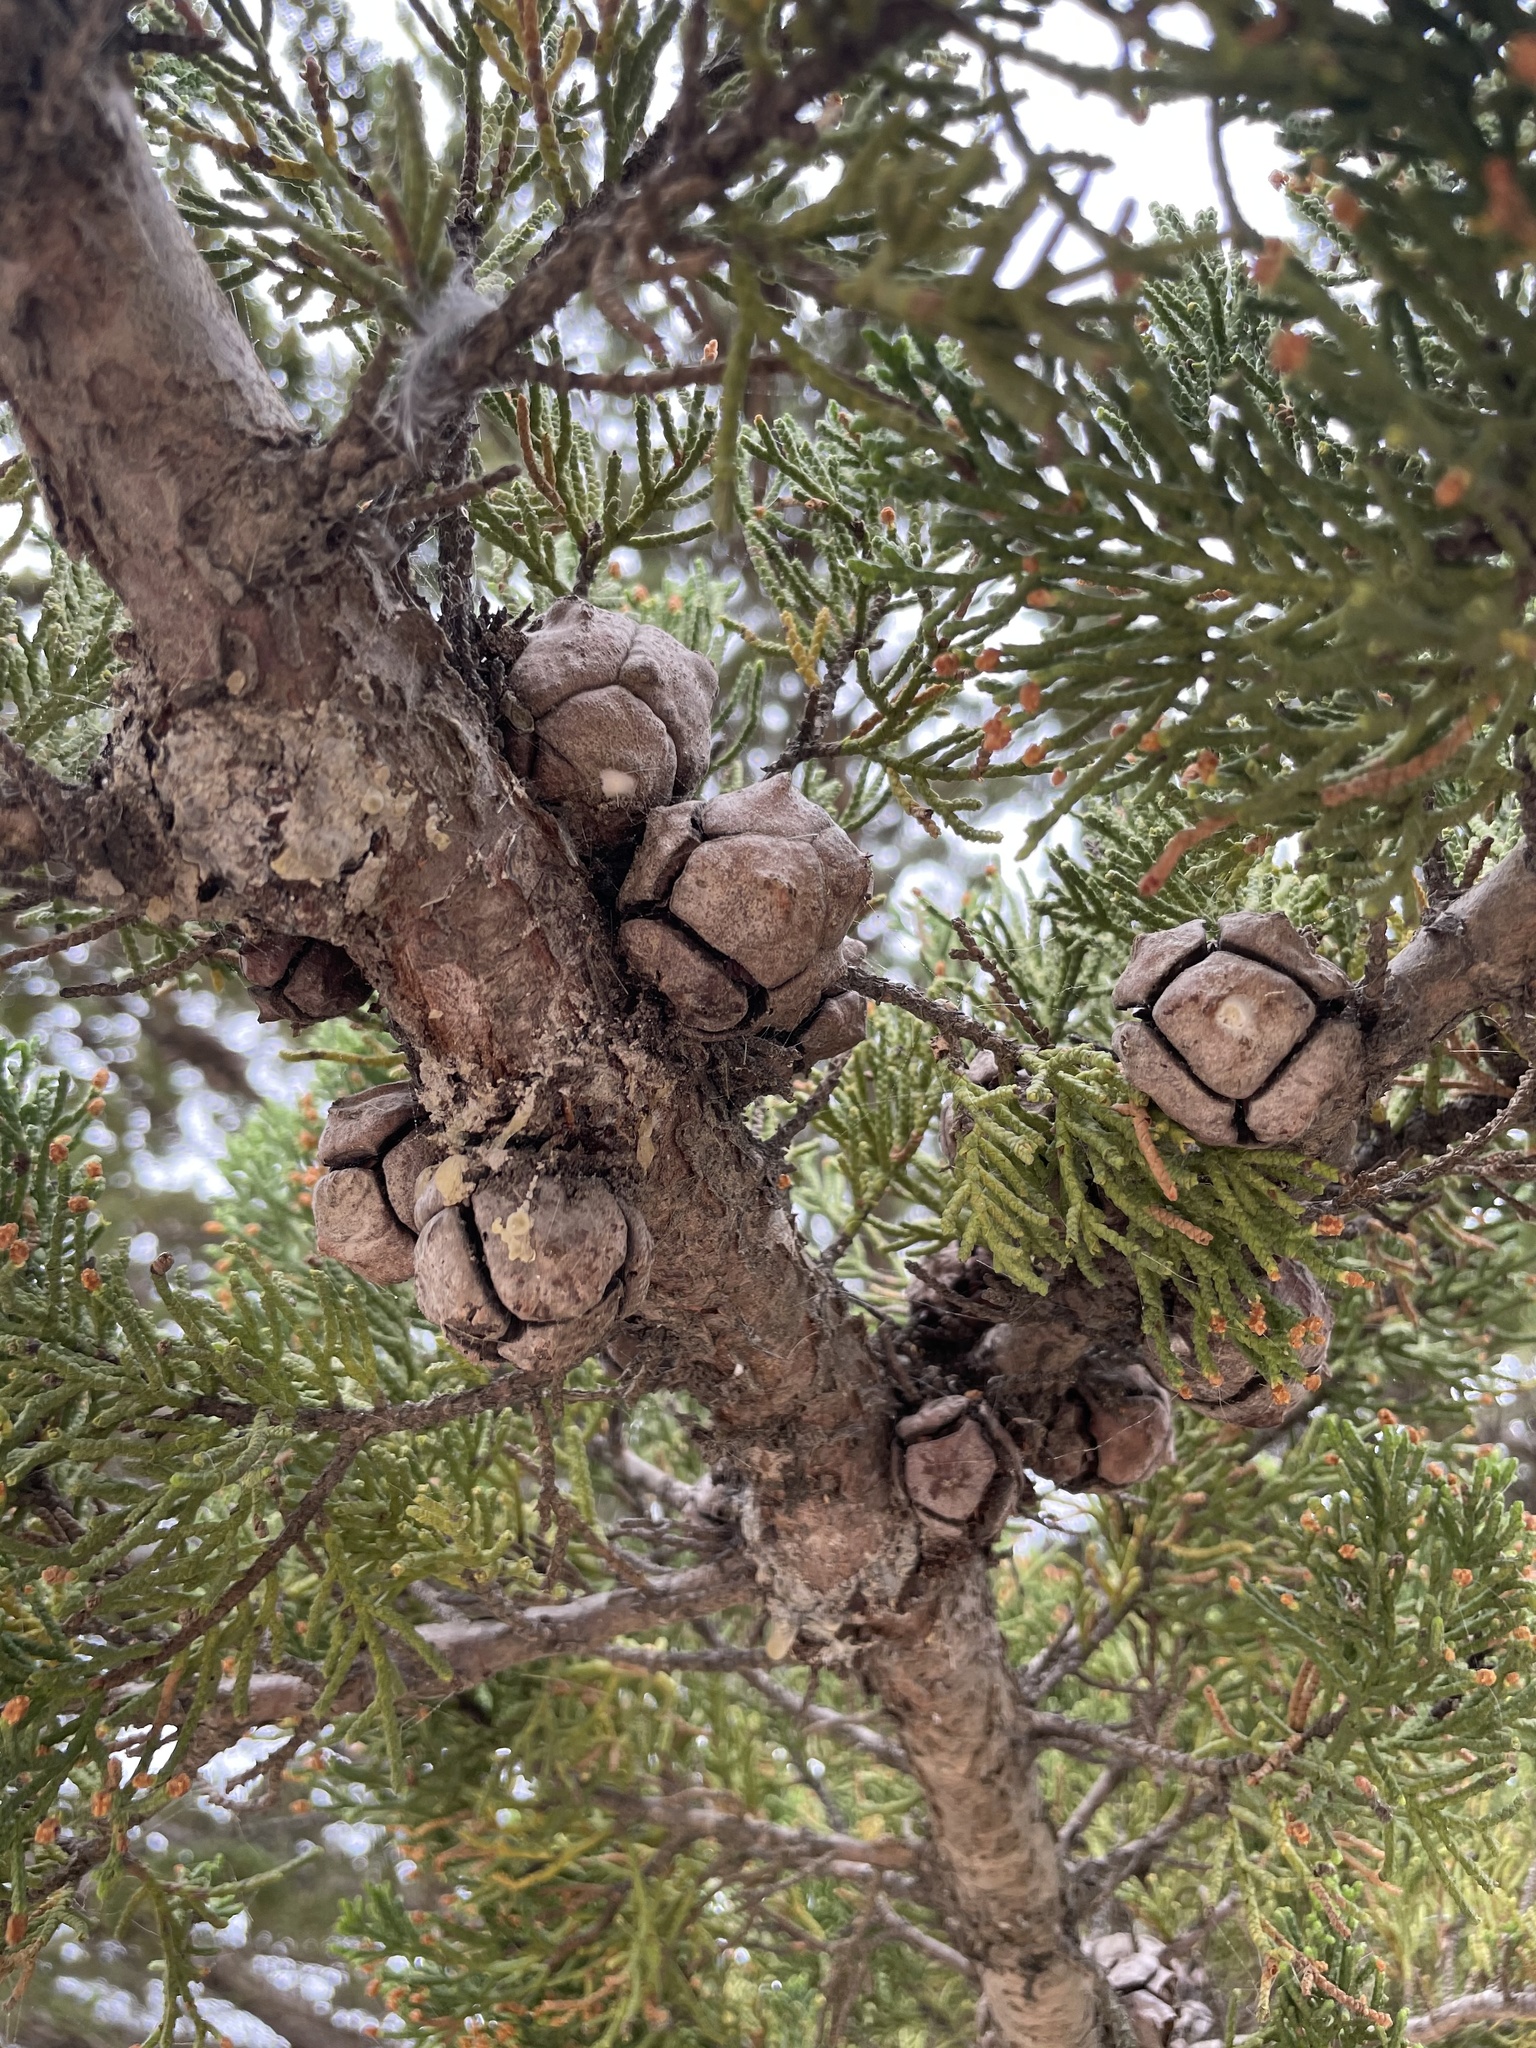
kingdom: Plantae
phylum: Tracheophyta
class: Pinopsida
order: Pinales
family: Cupressaceae
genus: Cupressus
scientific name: Cupressus macrocarpa
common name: Monterey cypress
